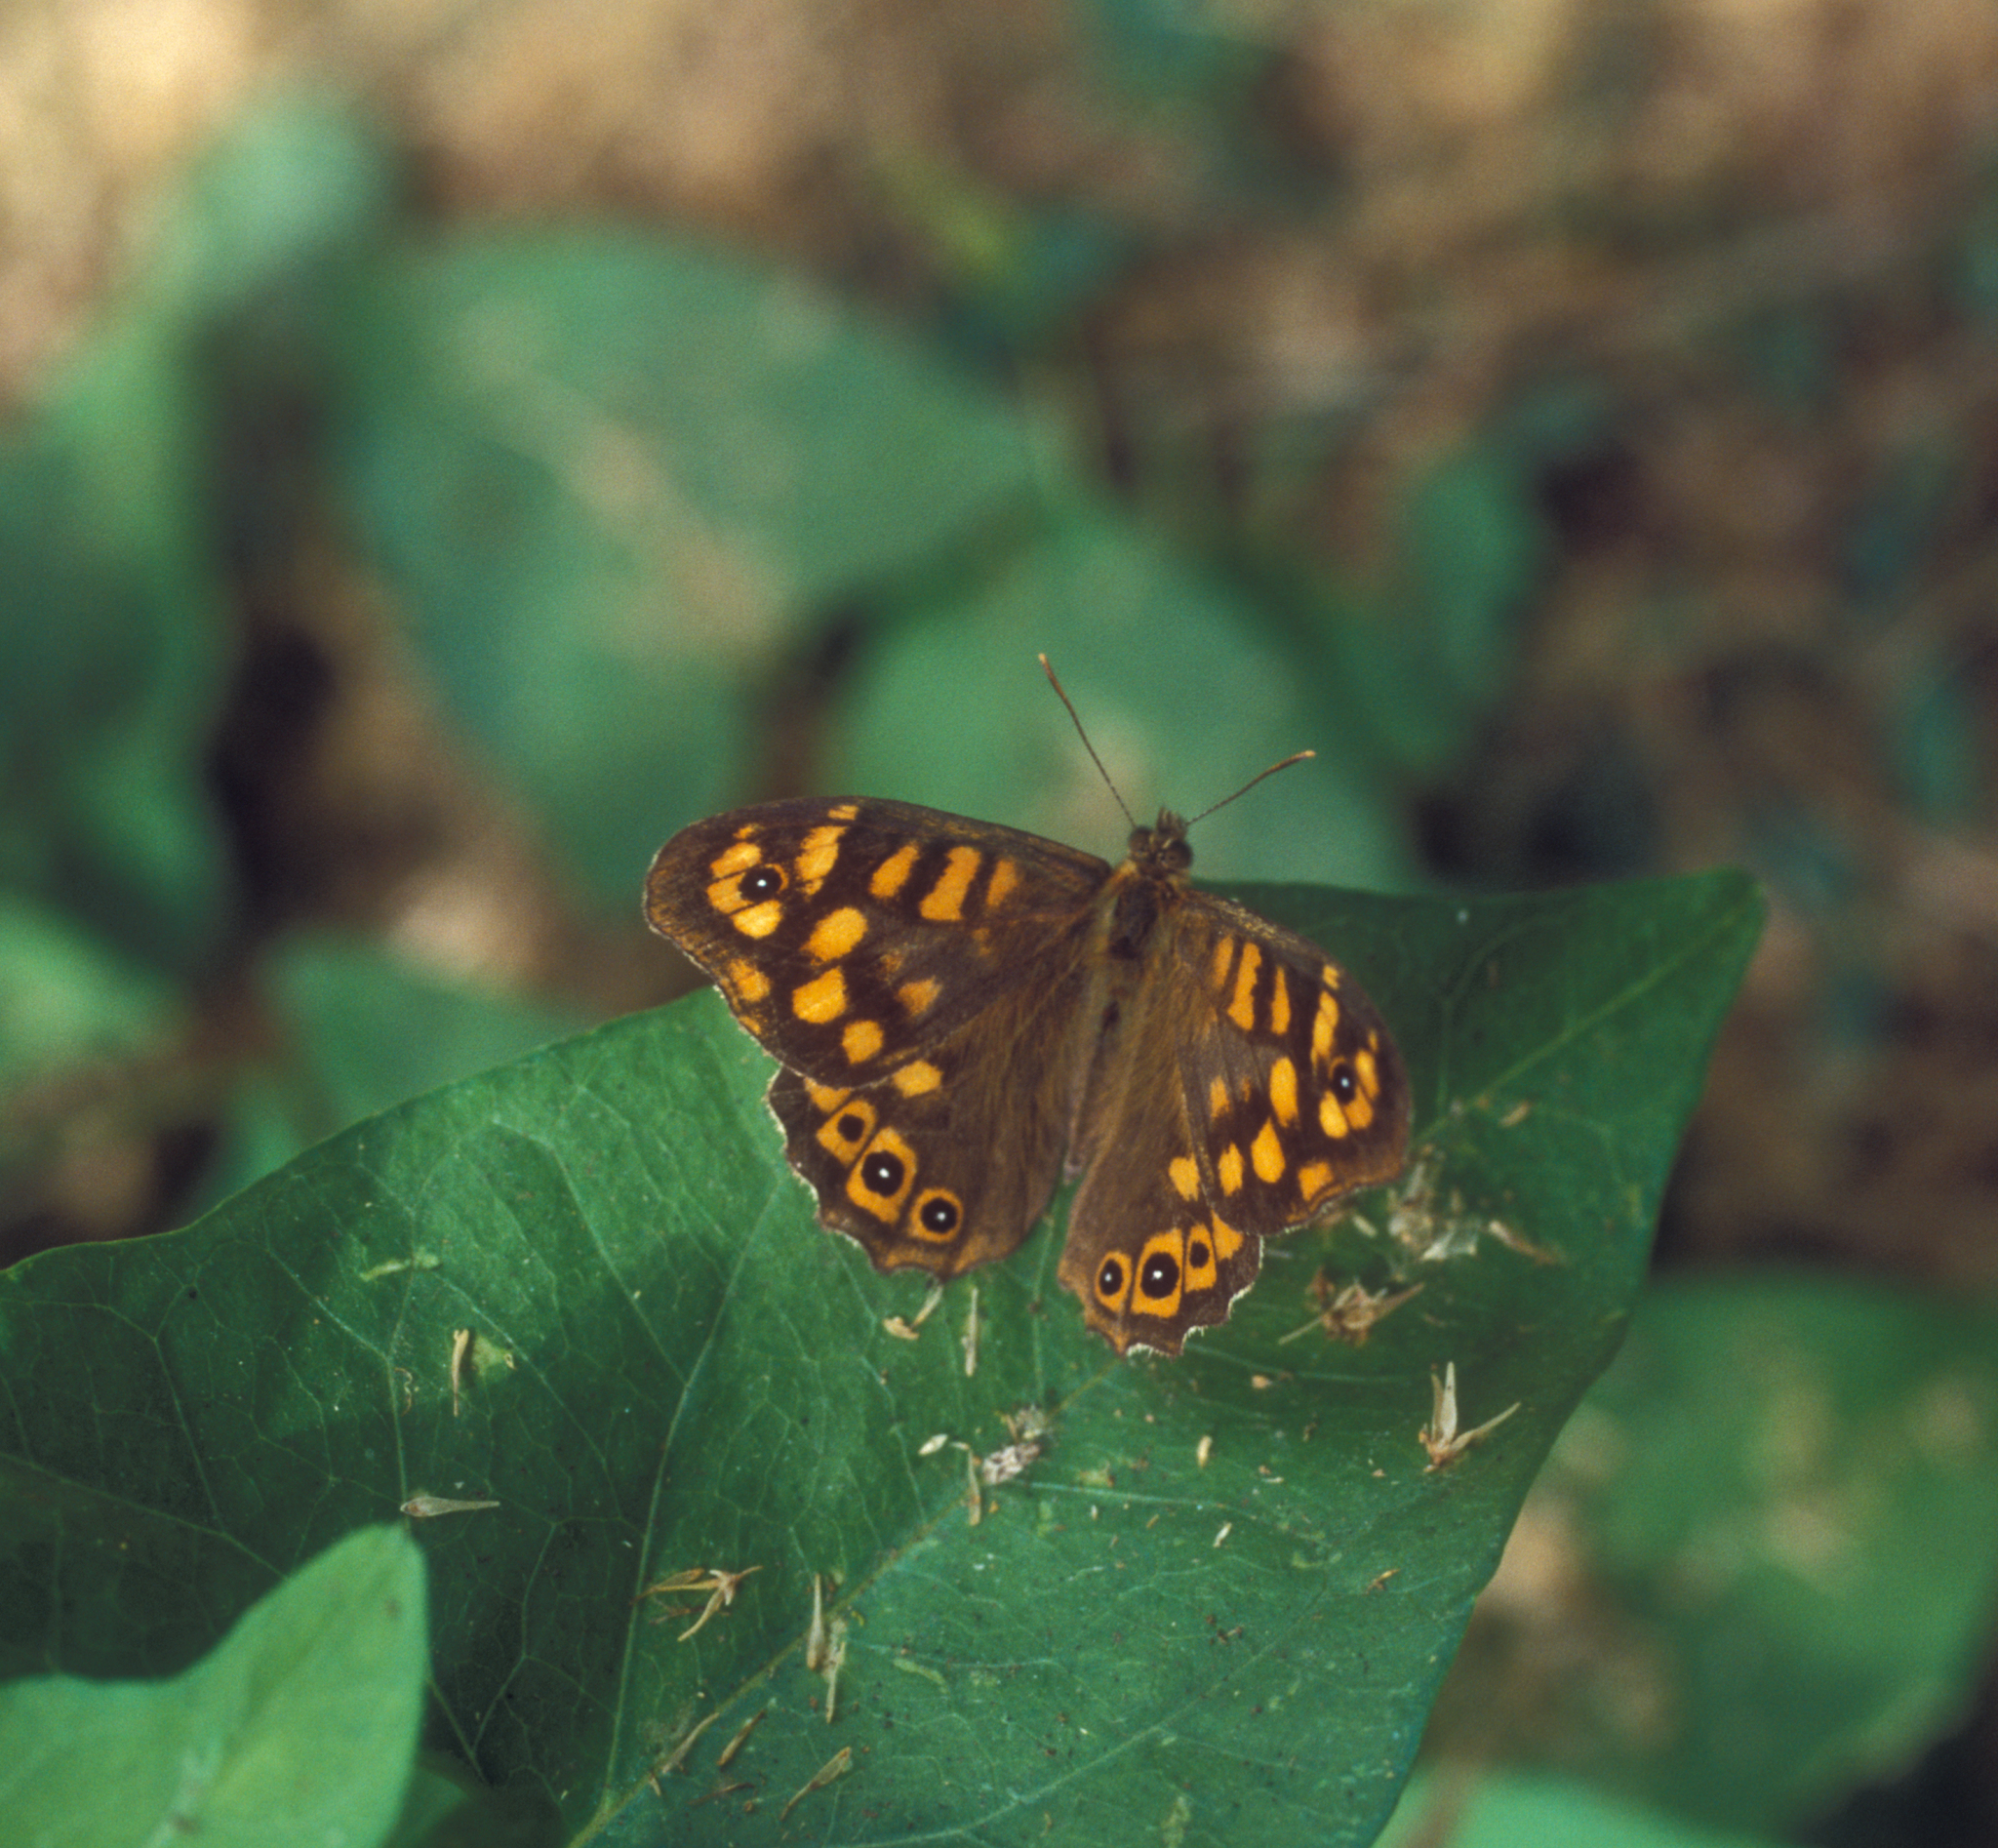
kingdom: Animalia
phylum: Arthropoda
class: Insecta
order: Lepidoptera
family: Nymphalidae
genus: Pararge
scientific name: Pararge aegeria
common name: Speckled wood
